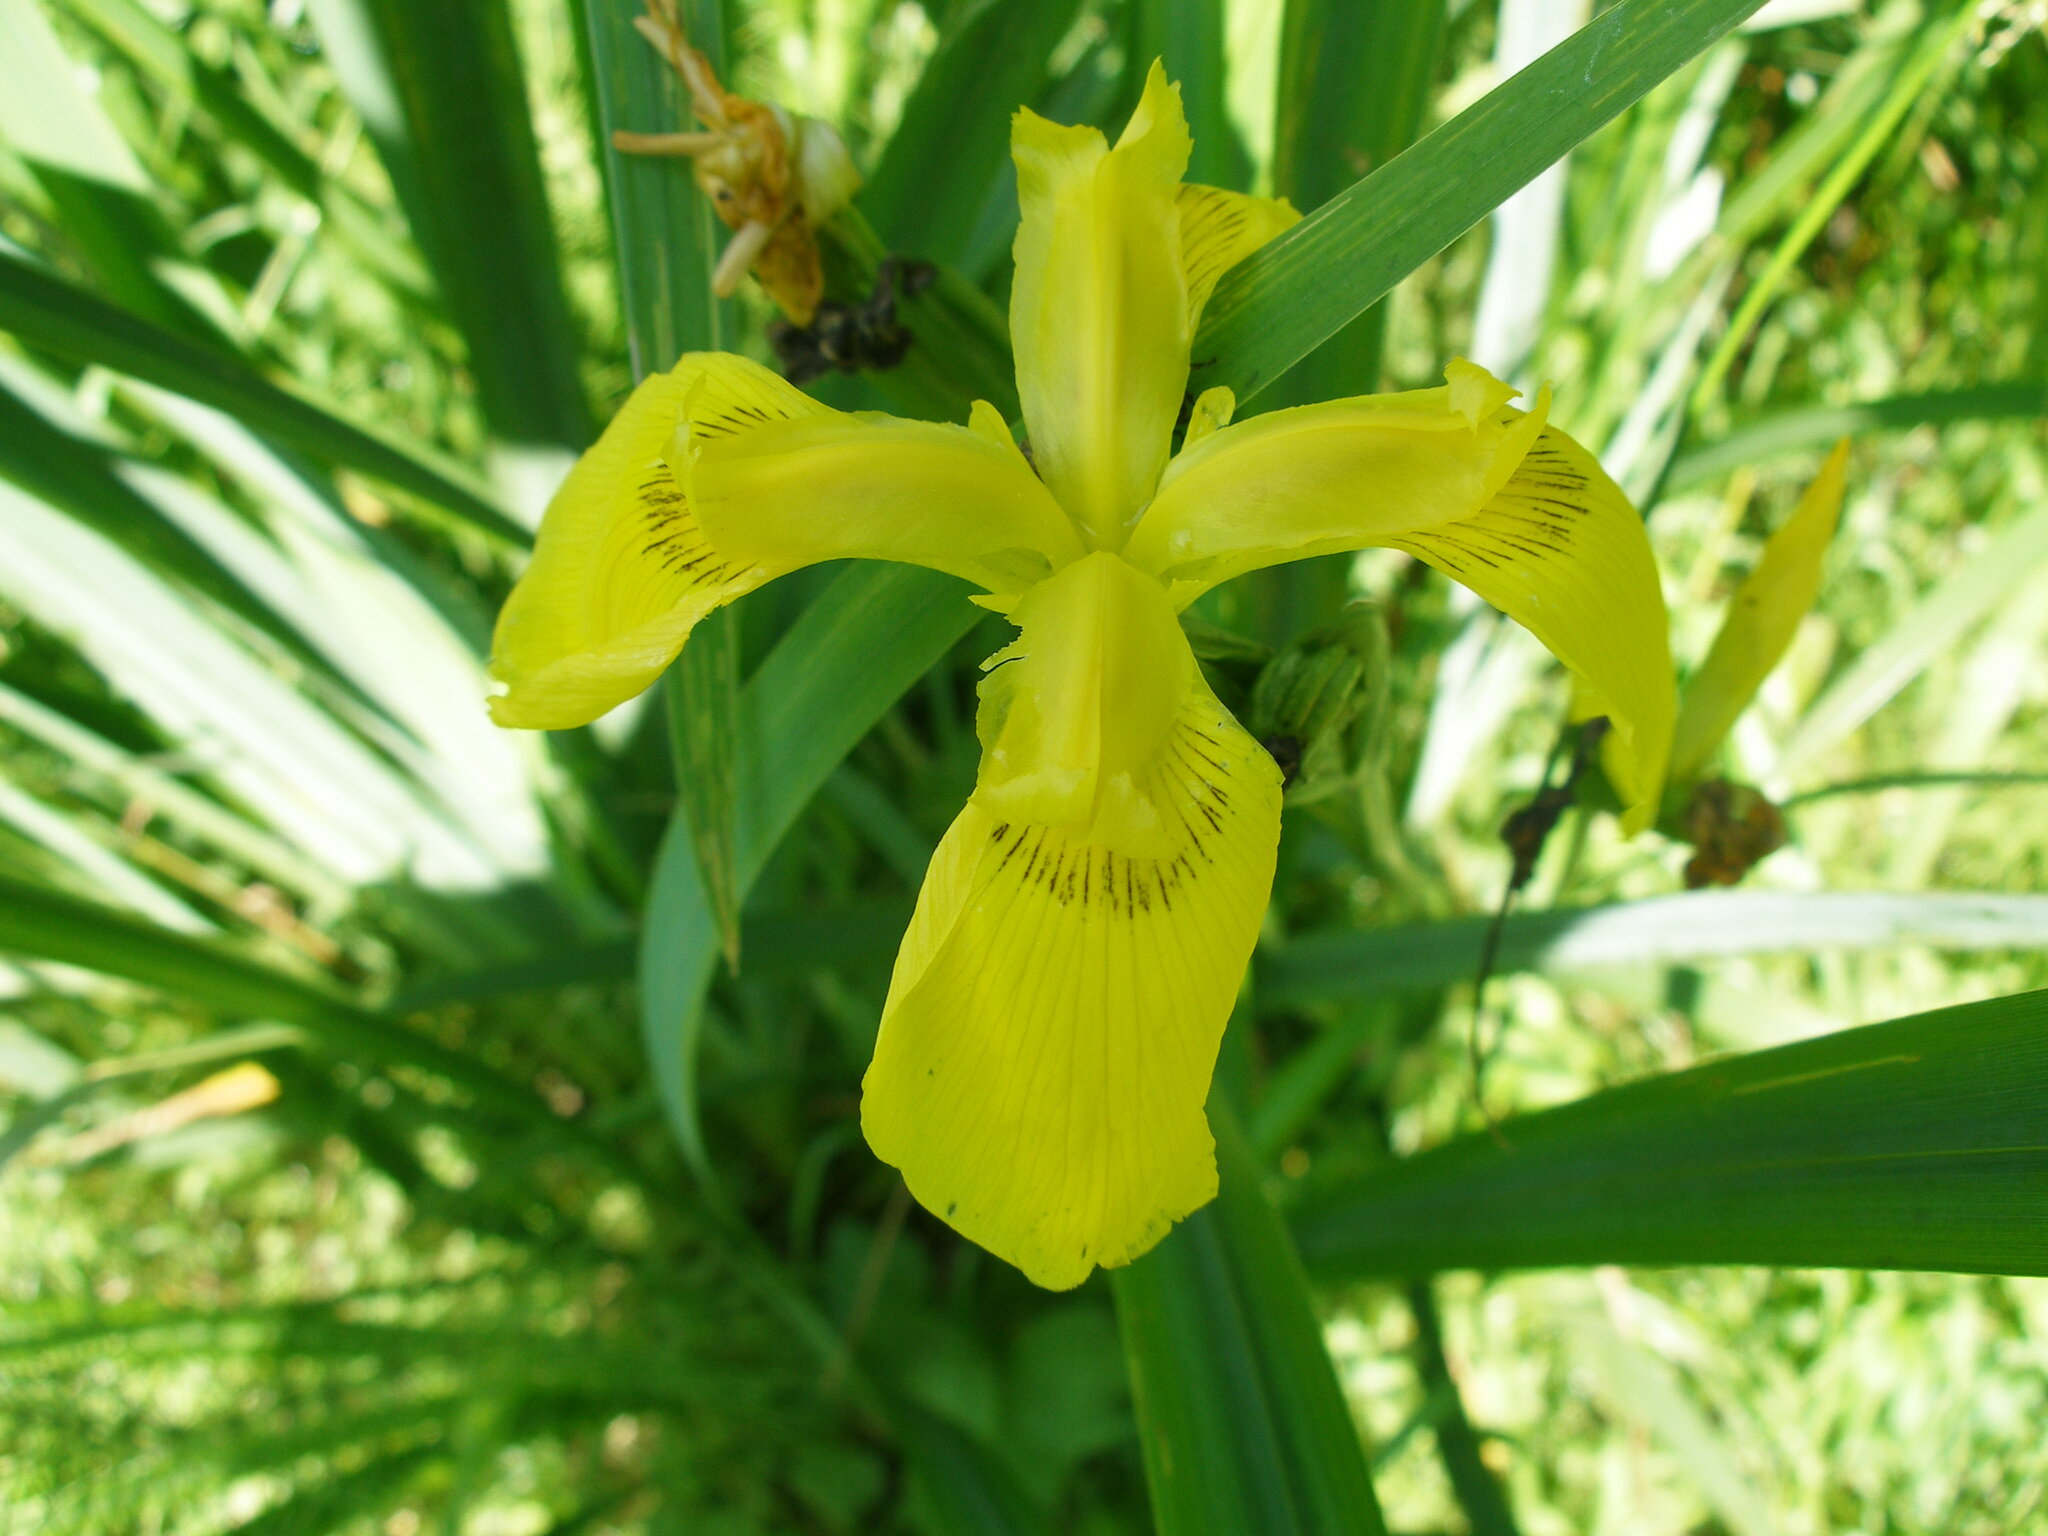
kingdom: Plantae
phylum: Tracheophyta
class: Liliopsida
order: Asparagales
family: Iridaceae
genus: Iris
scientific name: Iris pseudacorus
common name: Yellow flag
